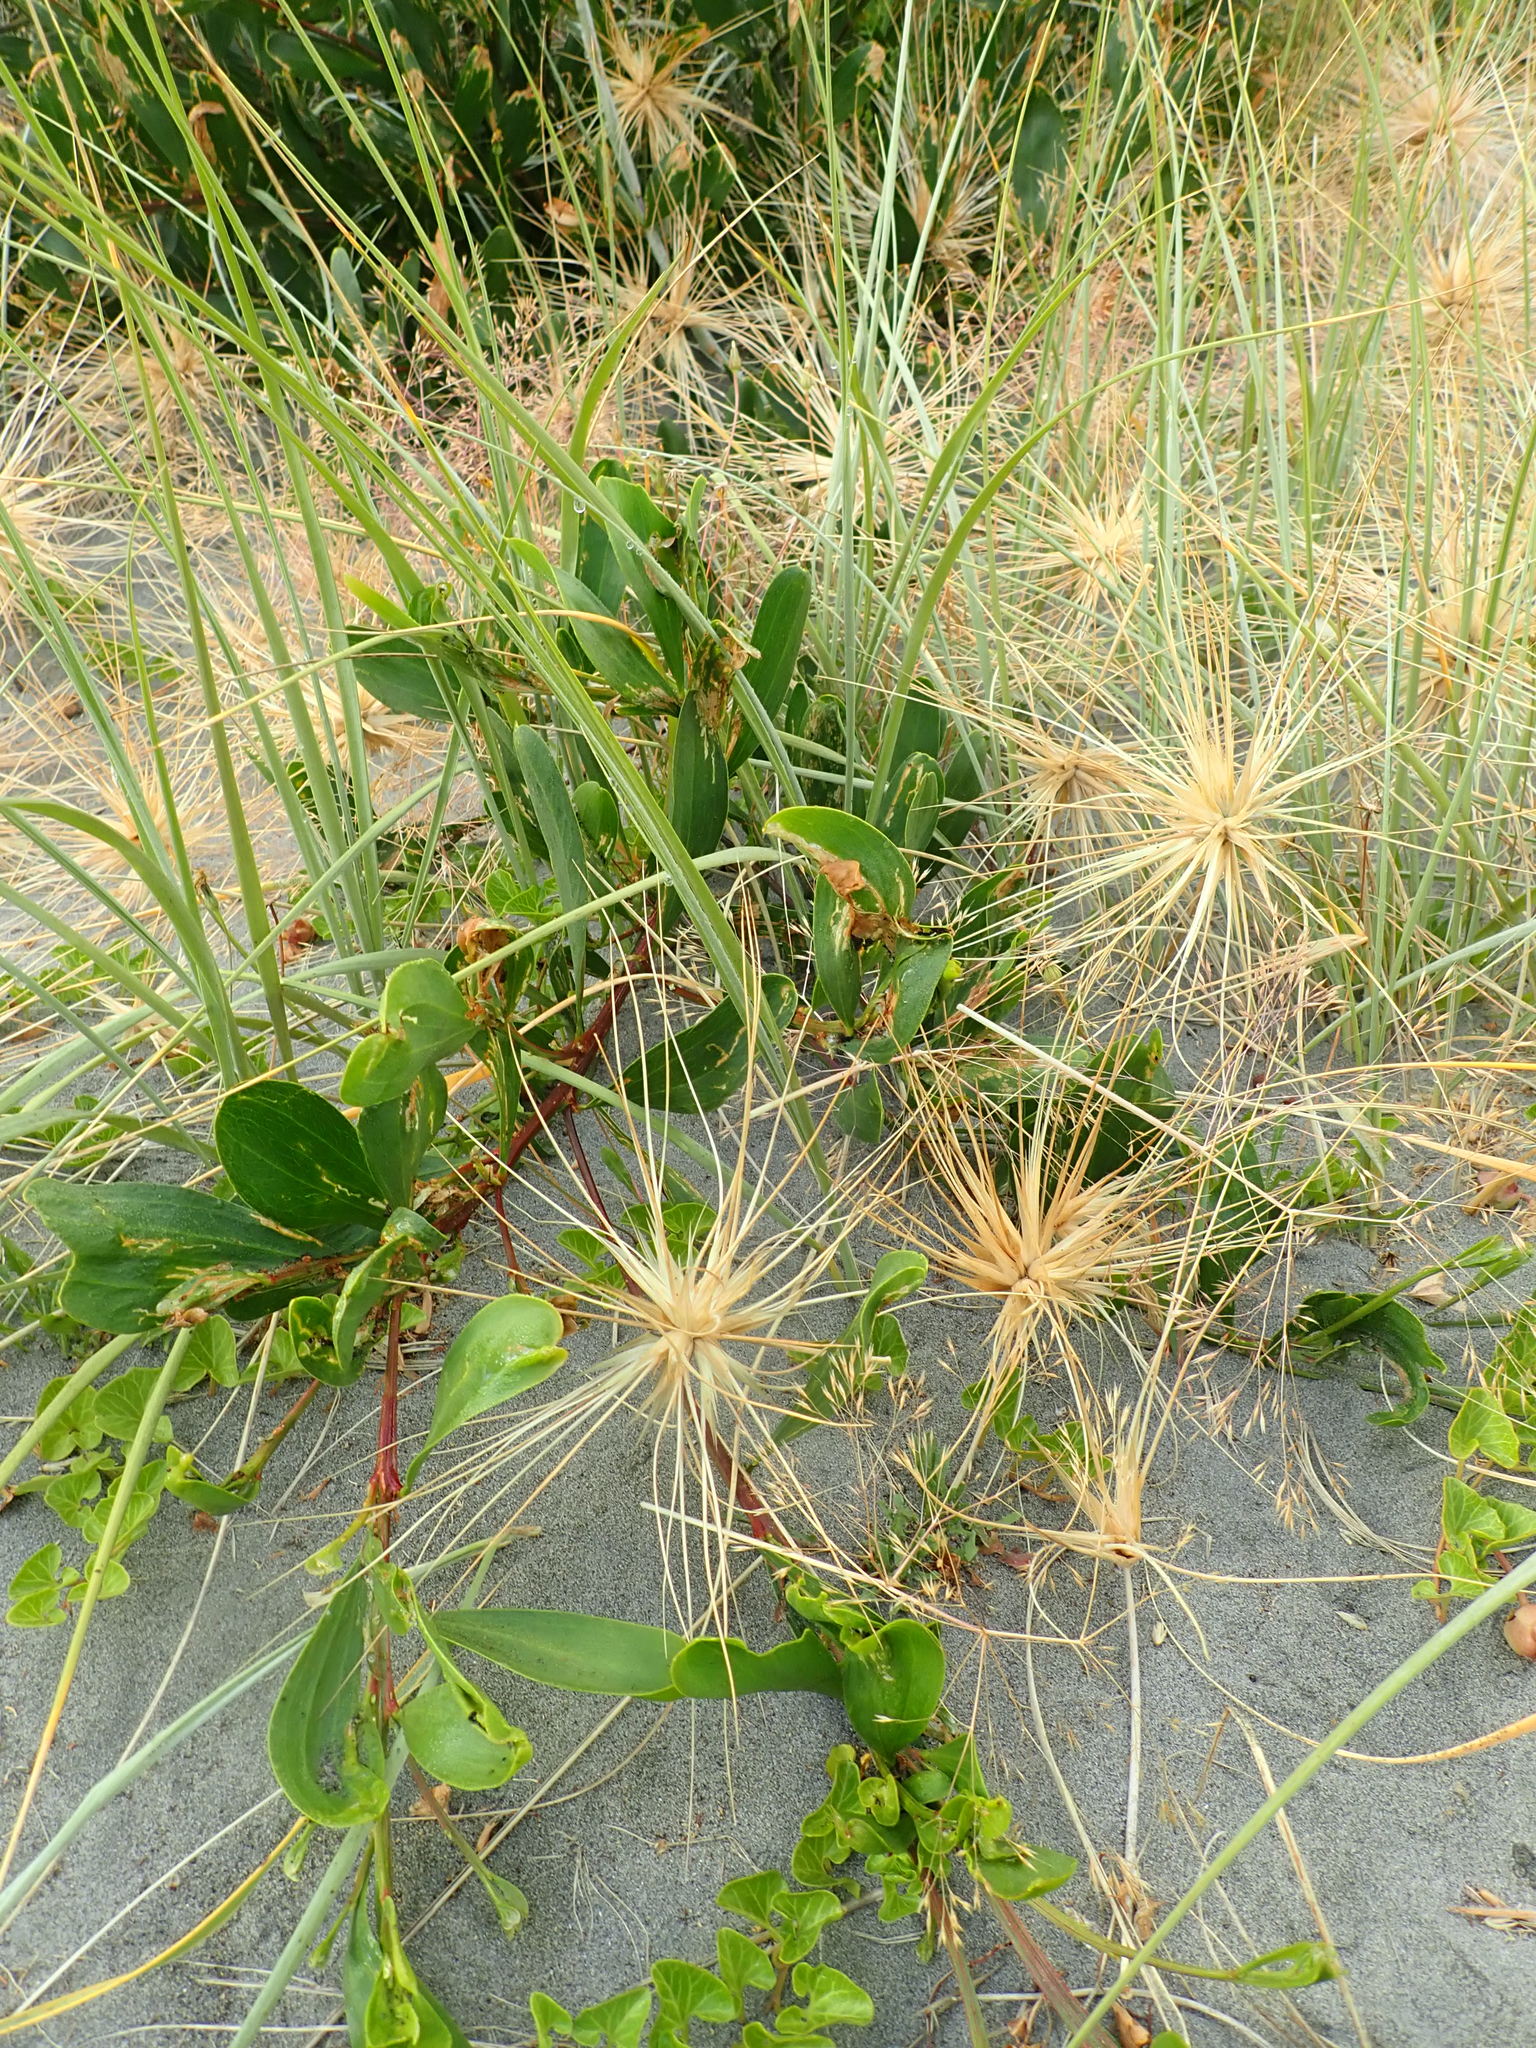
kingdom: Plantae
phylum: Tracheophyta
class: Magnoliopsida
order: Fabales
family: Fabaceae
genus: Acacia
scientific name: Acacia longifolia
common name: Sydney golden wattle
